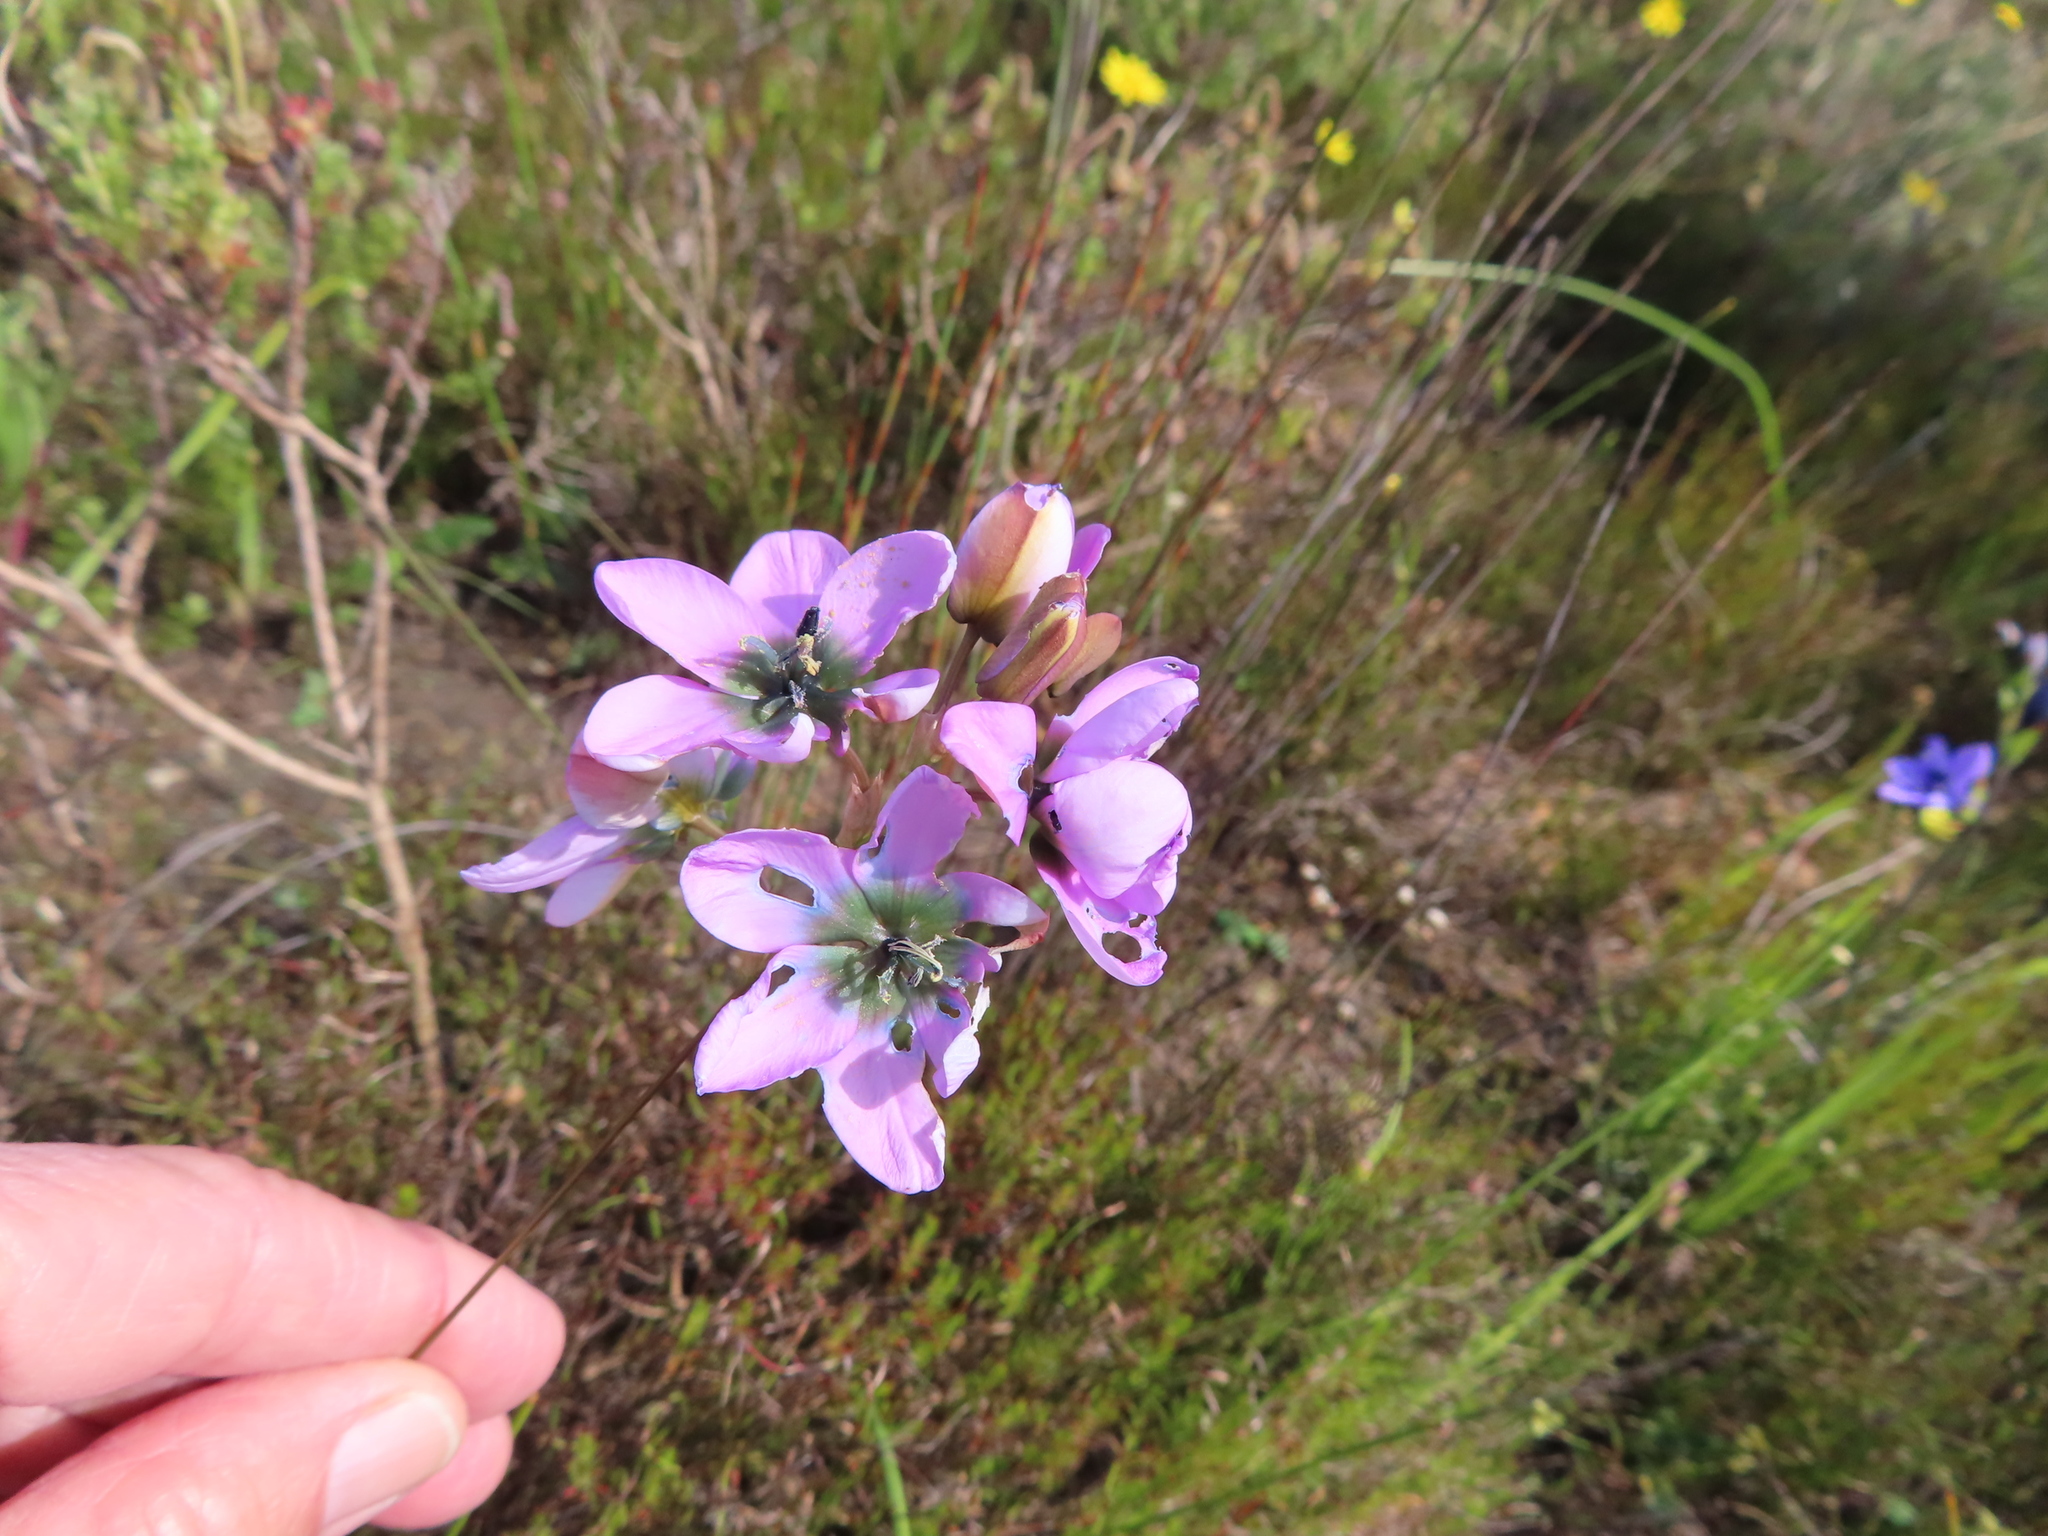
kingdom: Plantae
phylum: Tracheophyta
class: Liliopsida
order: Asparagales
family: Iridaceae
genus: Ixia
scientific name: Ixia versicolor
